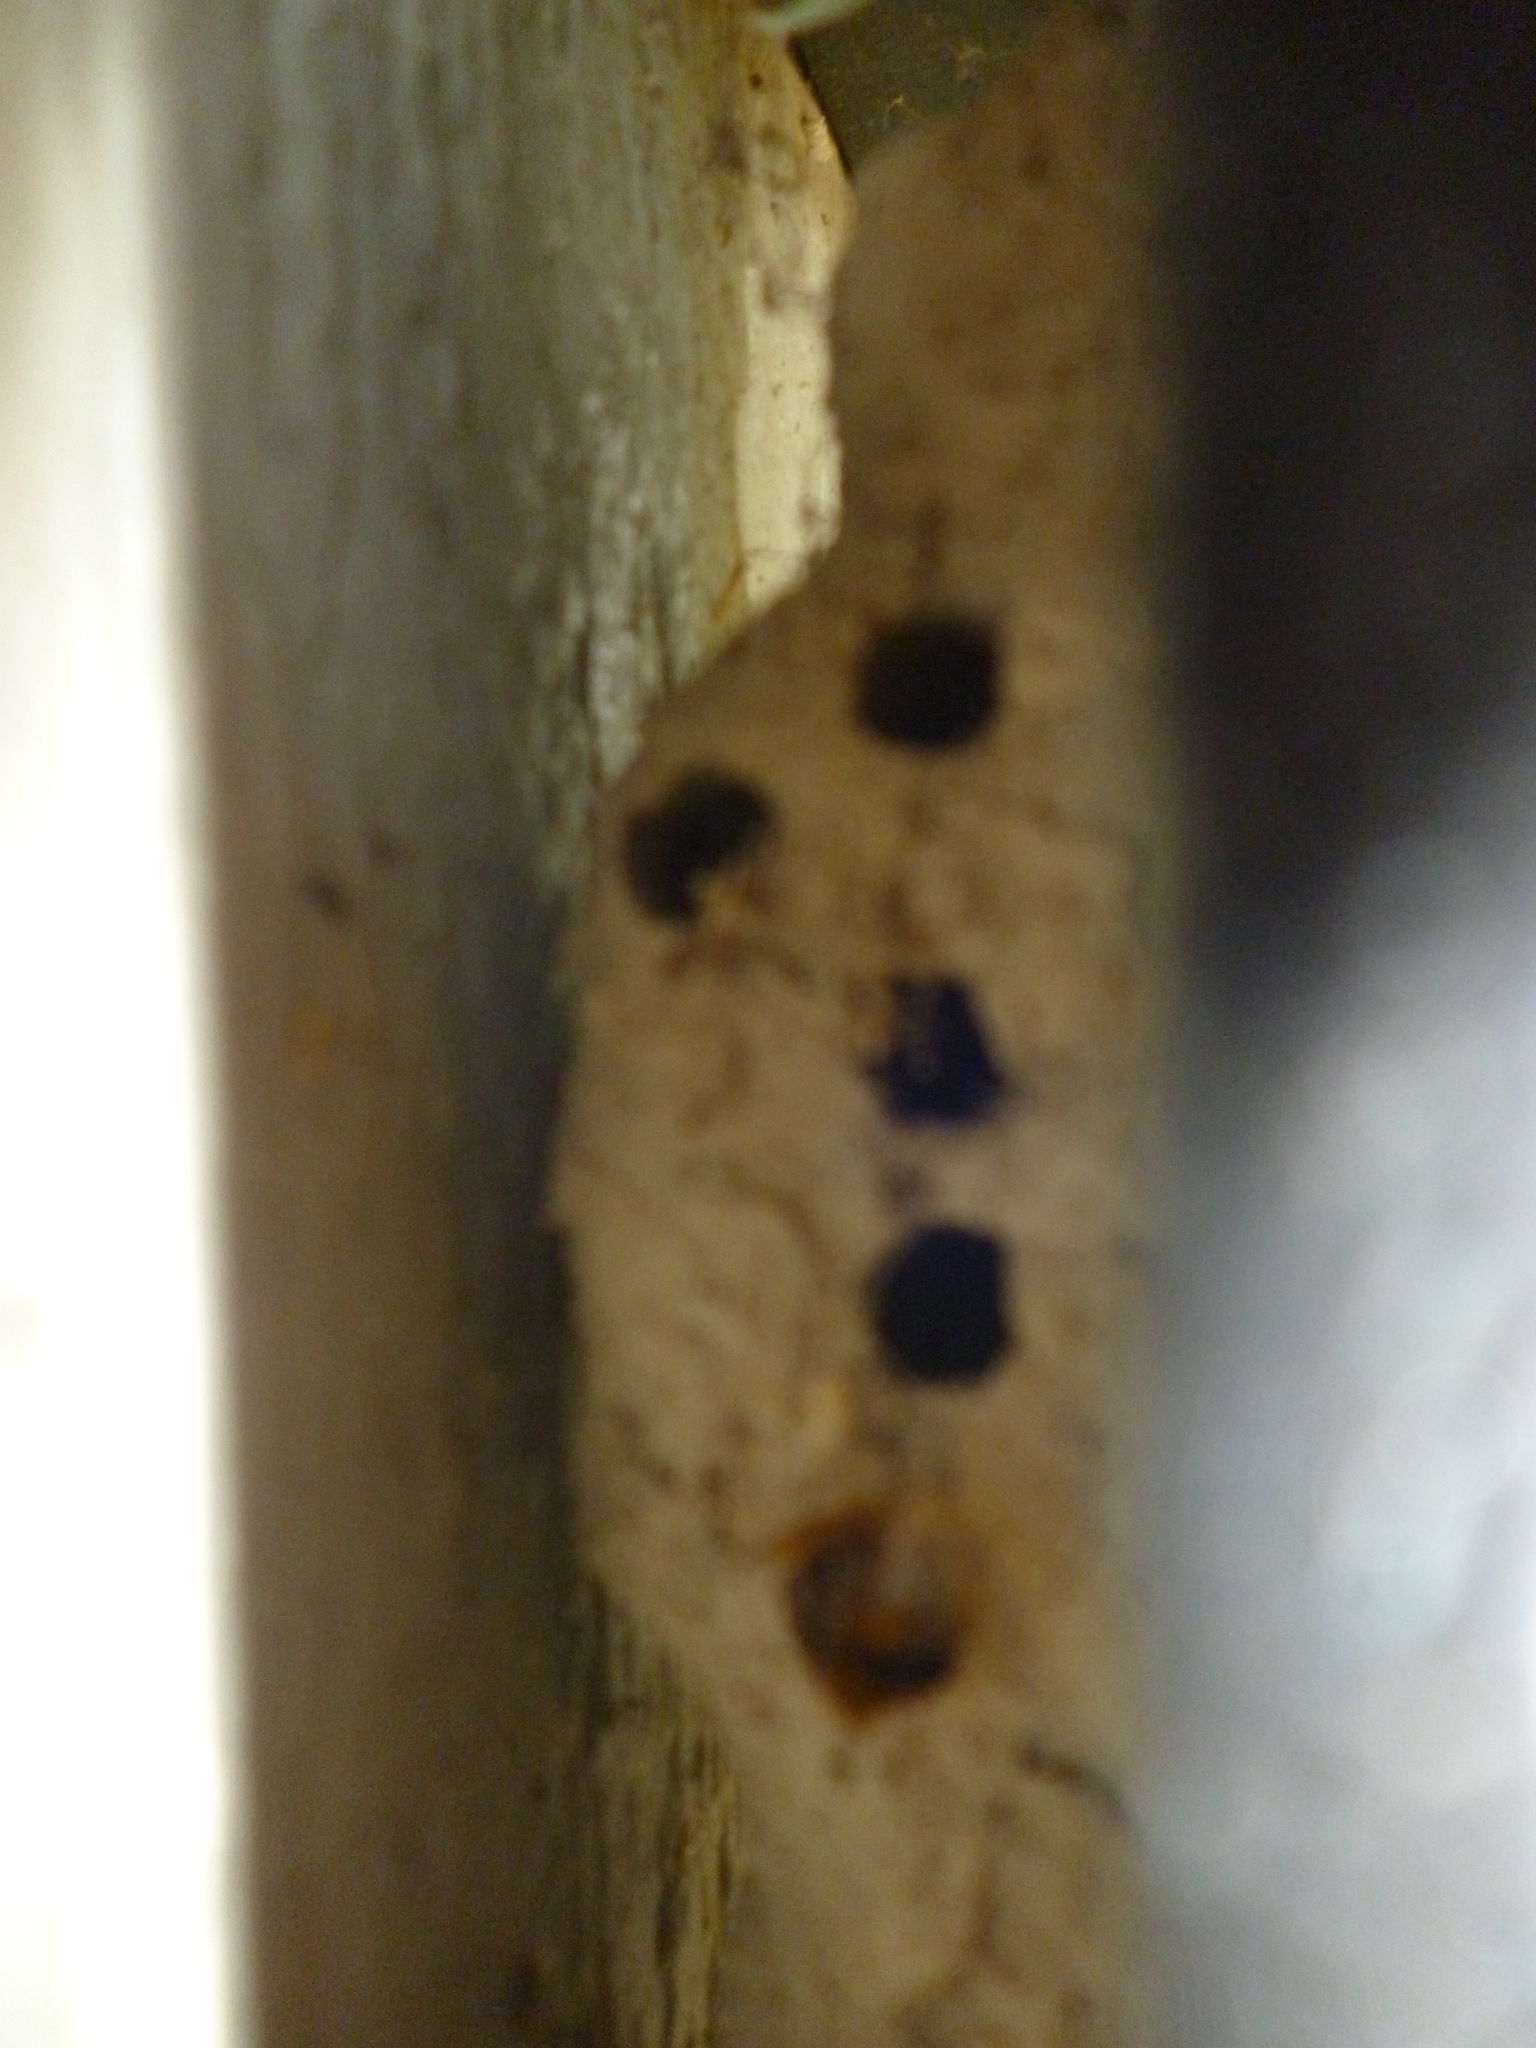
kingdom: Animalia
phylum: Arthropoda
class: Insecta
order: Hymenoptera
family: Sphecidae
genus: Sceliphron
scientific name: Sceliphron caementarium
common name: Mud dauber
